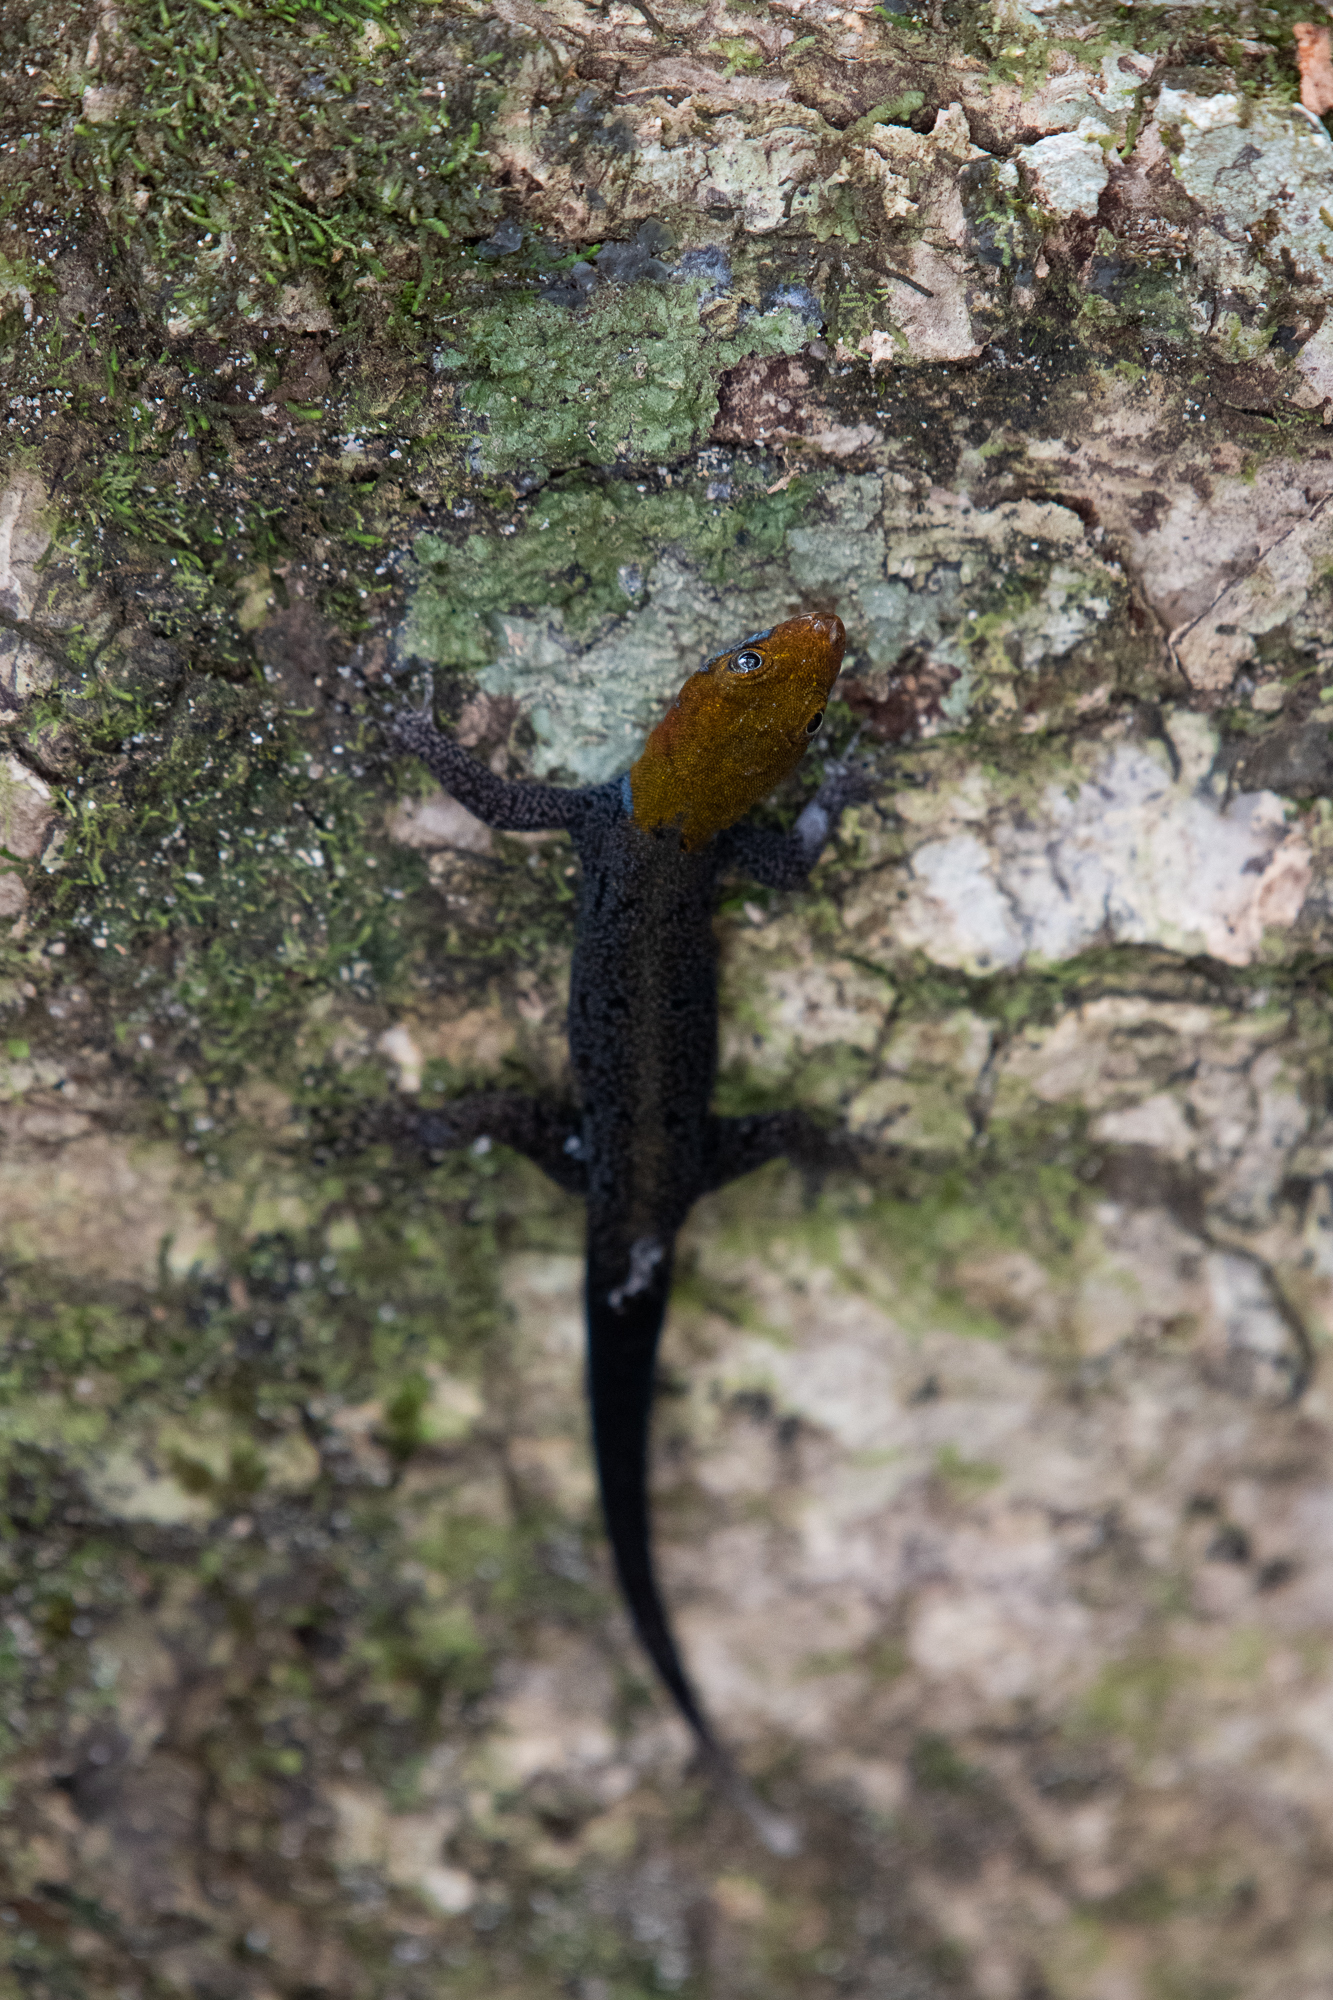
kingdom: Animalia
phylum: Chordata
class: Squamata
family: Sphaerodactylidae
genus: Gonatodes
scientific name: Gonatodes albogularis
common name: Yellow-headed gecko
